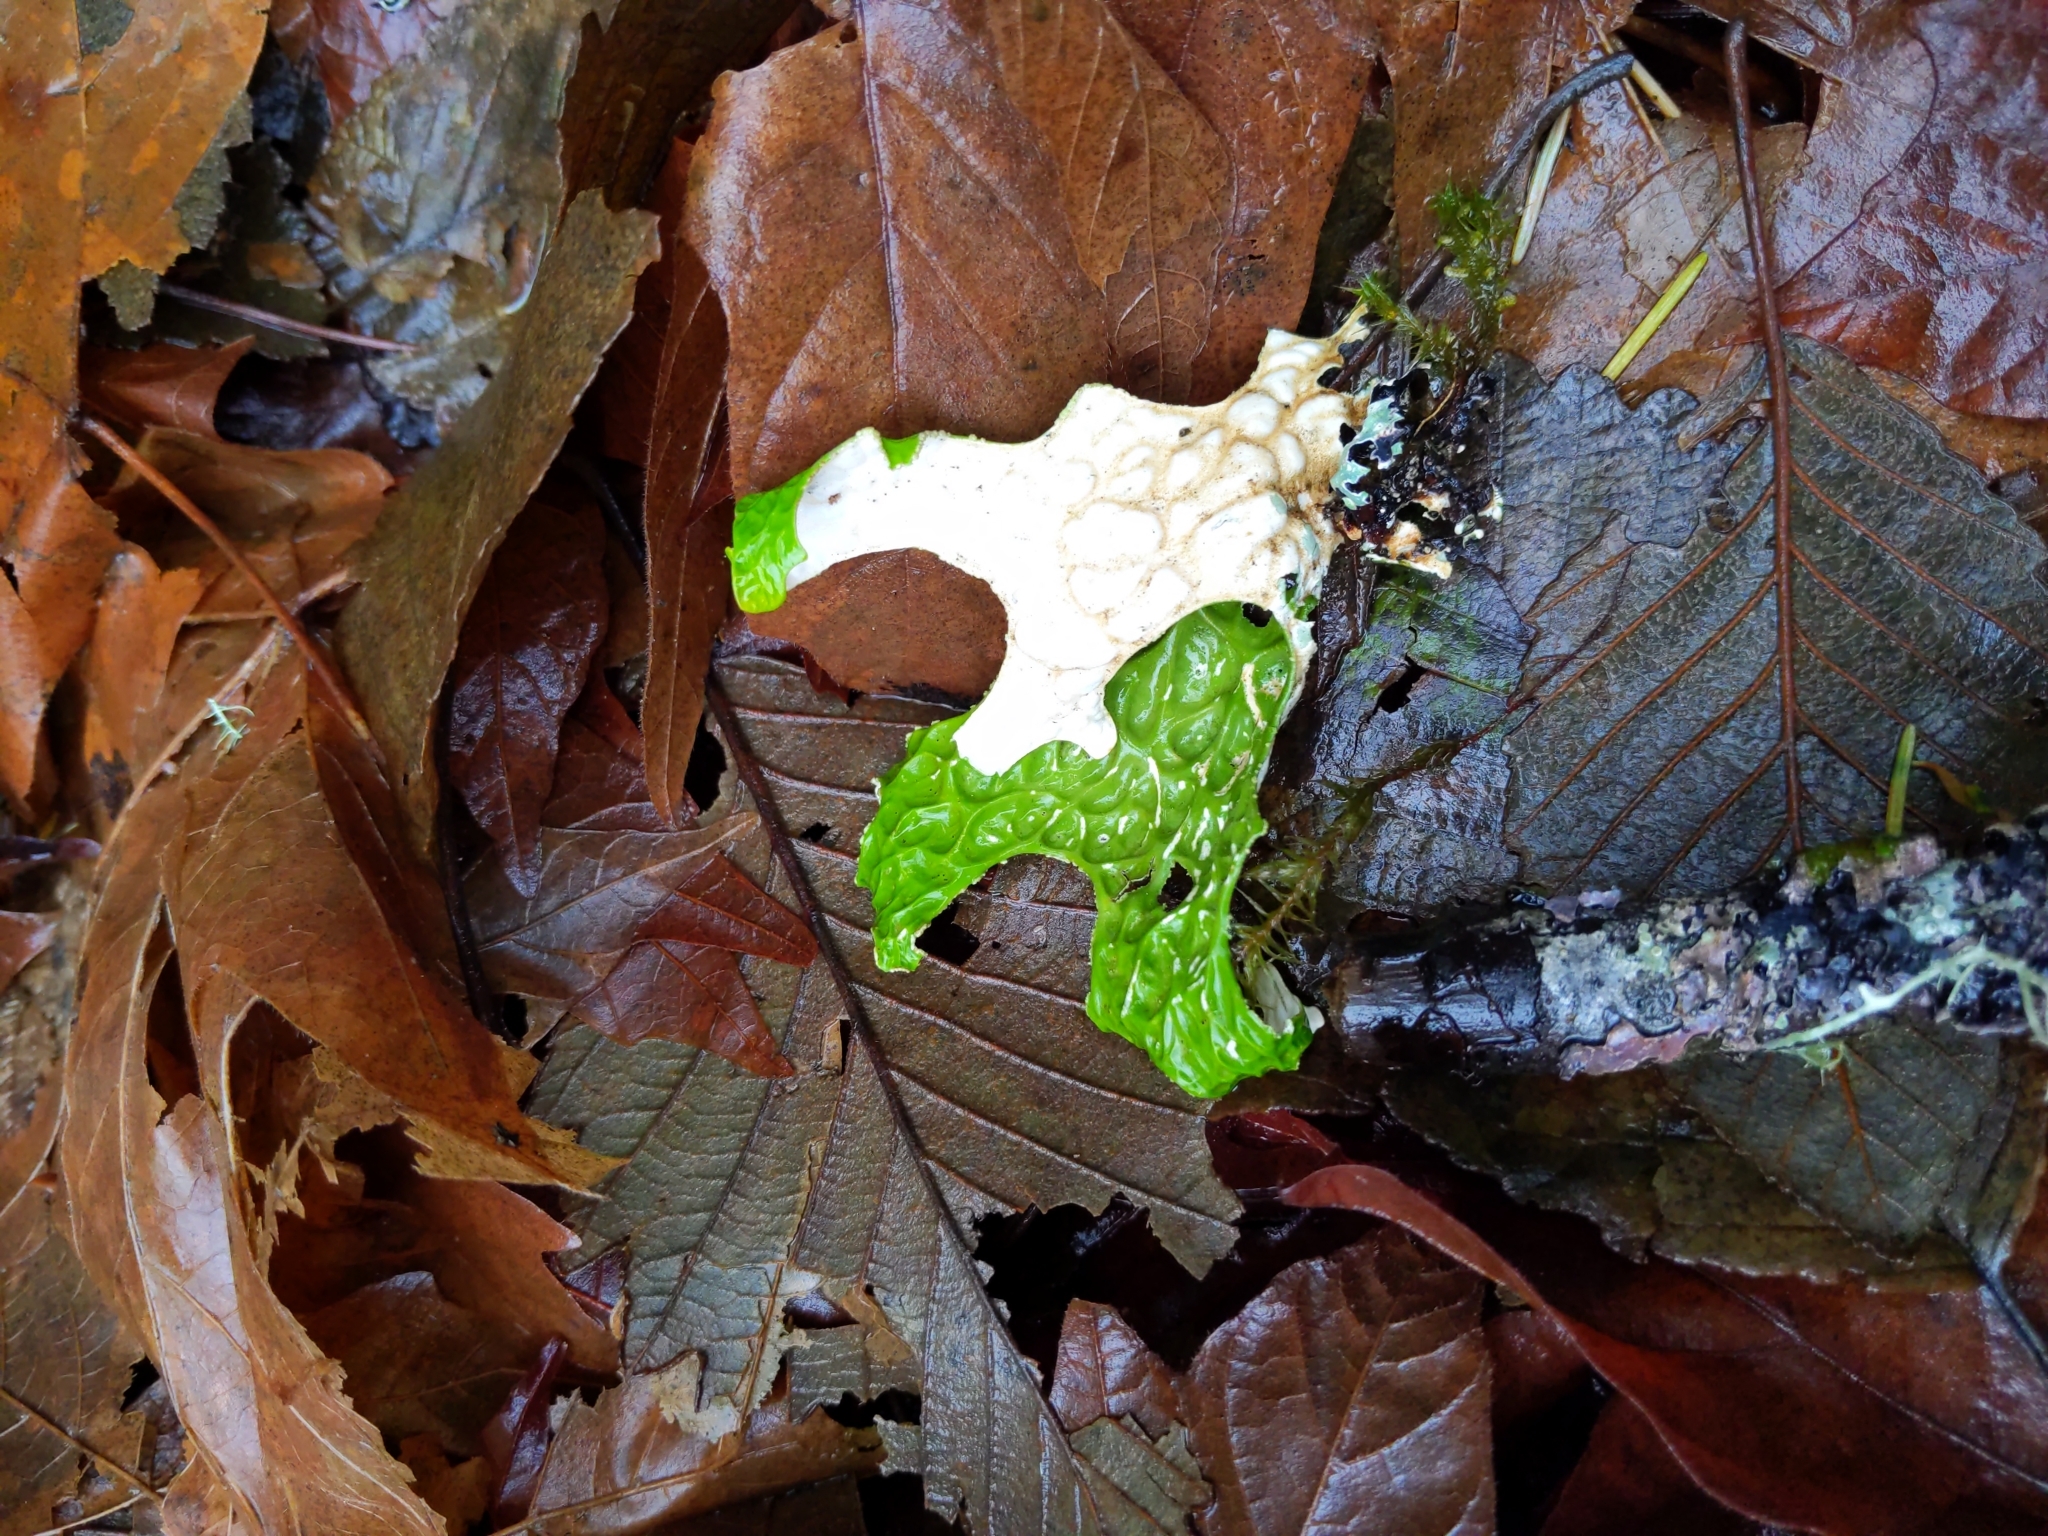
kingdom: Fungi
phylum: Ascomycota
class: Lecanoromycetes
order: Peltigerales
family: Lobariaceae
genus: Lobaria
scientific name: Lobaria pulmonaria
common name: Lungwort
